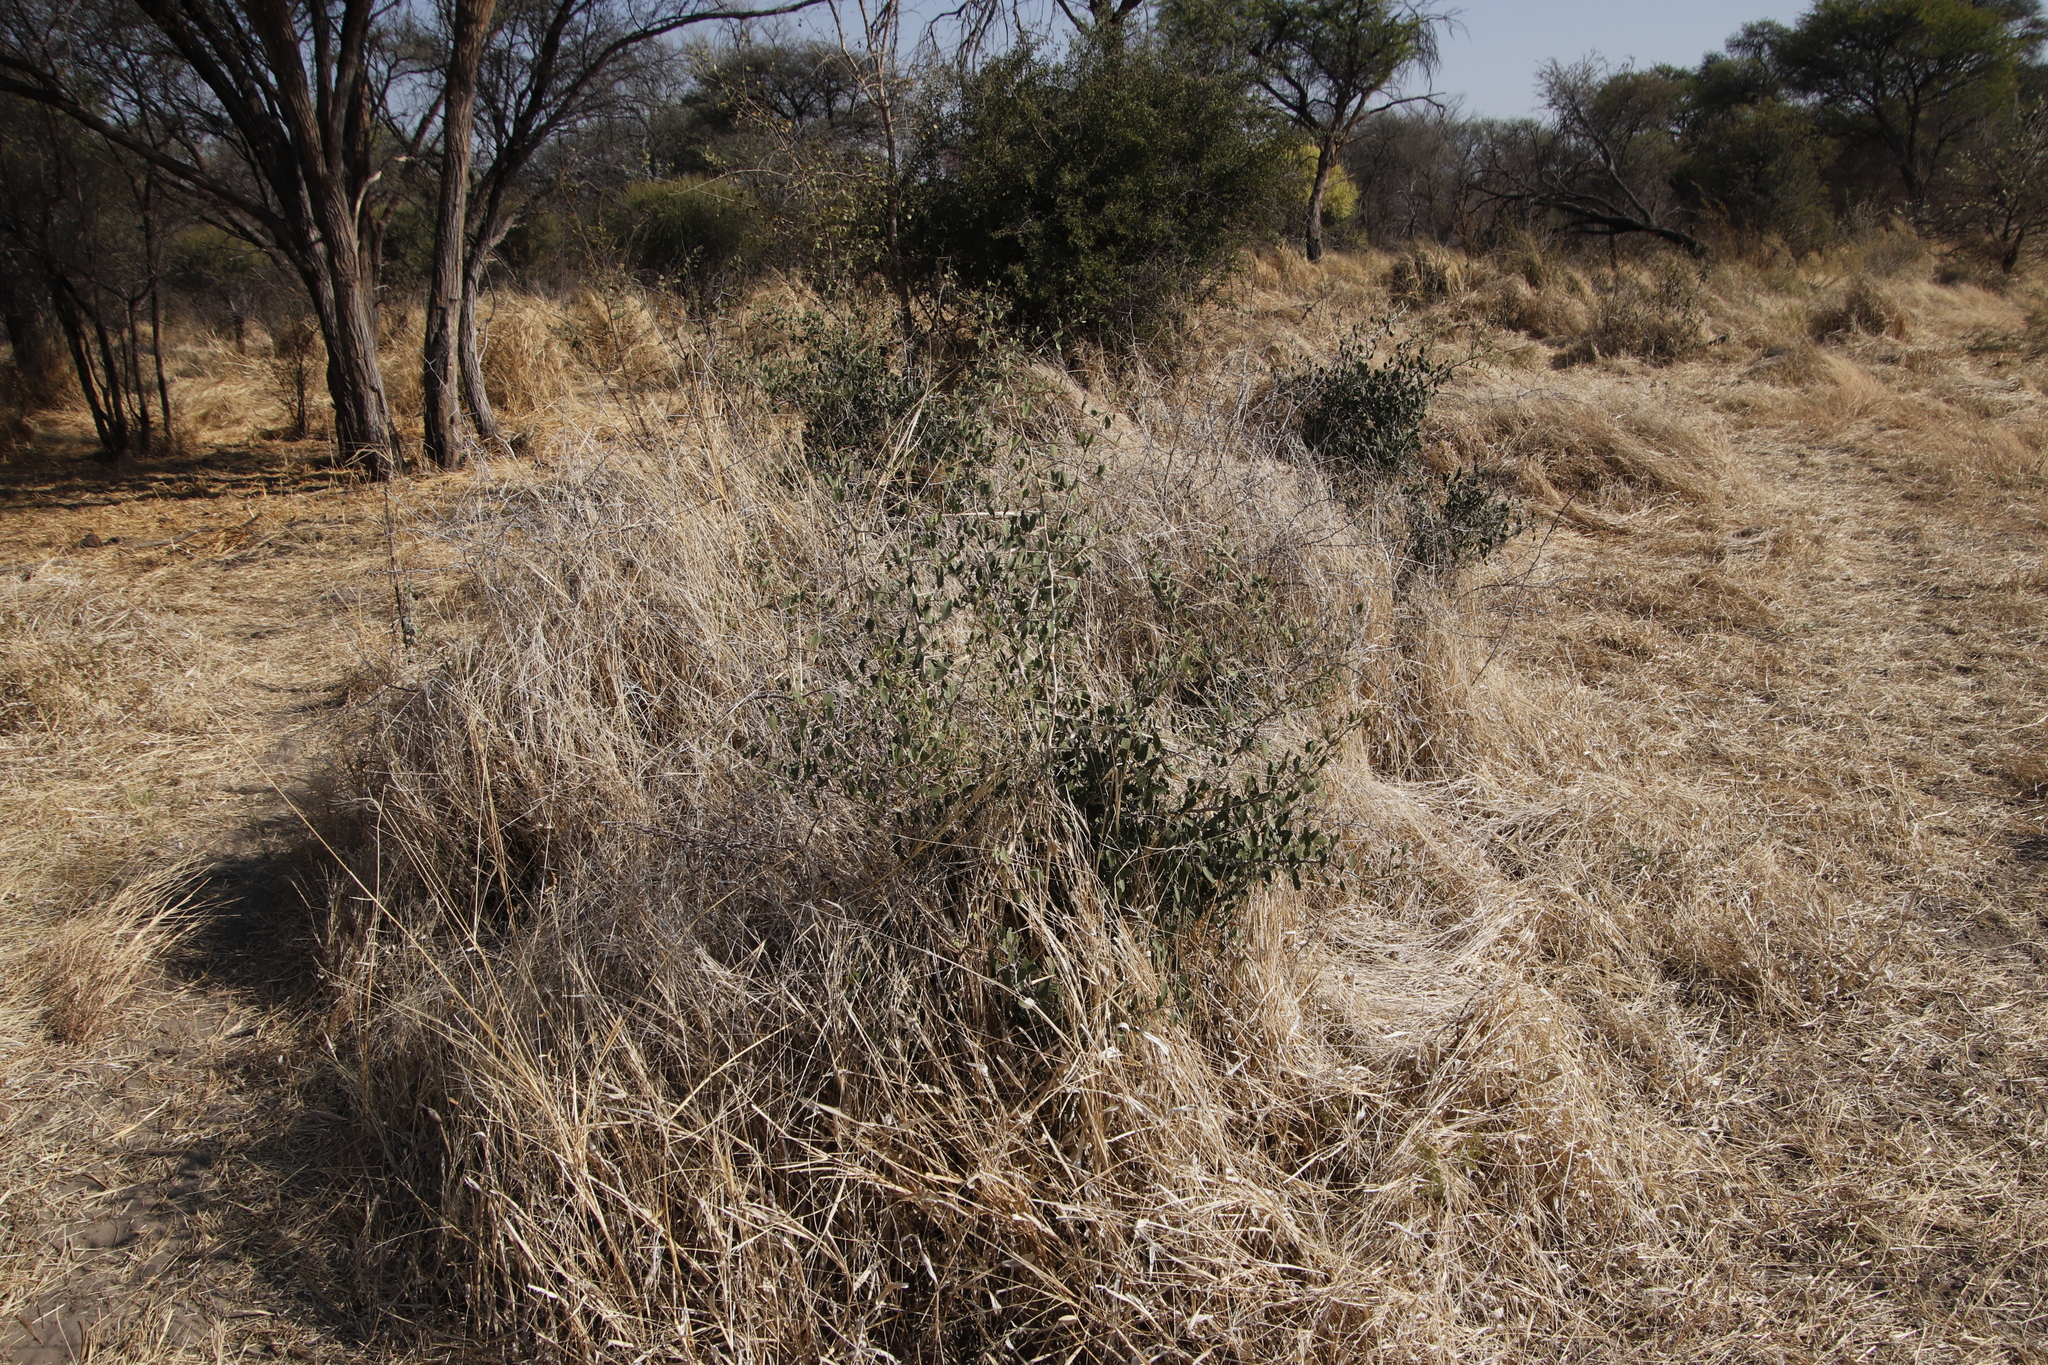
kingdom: Plantae
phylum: Tracheophyta
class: Magnoliopsida
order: Celastrales
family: Celastraceae
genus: Gymnosporia
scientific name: Gymnosporia senegalensis
